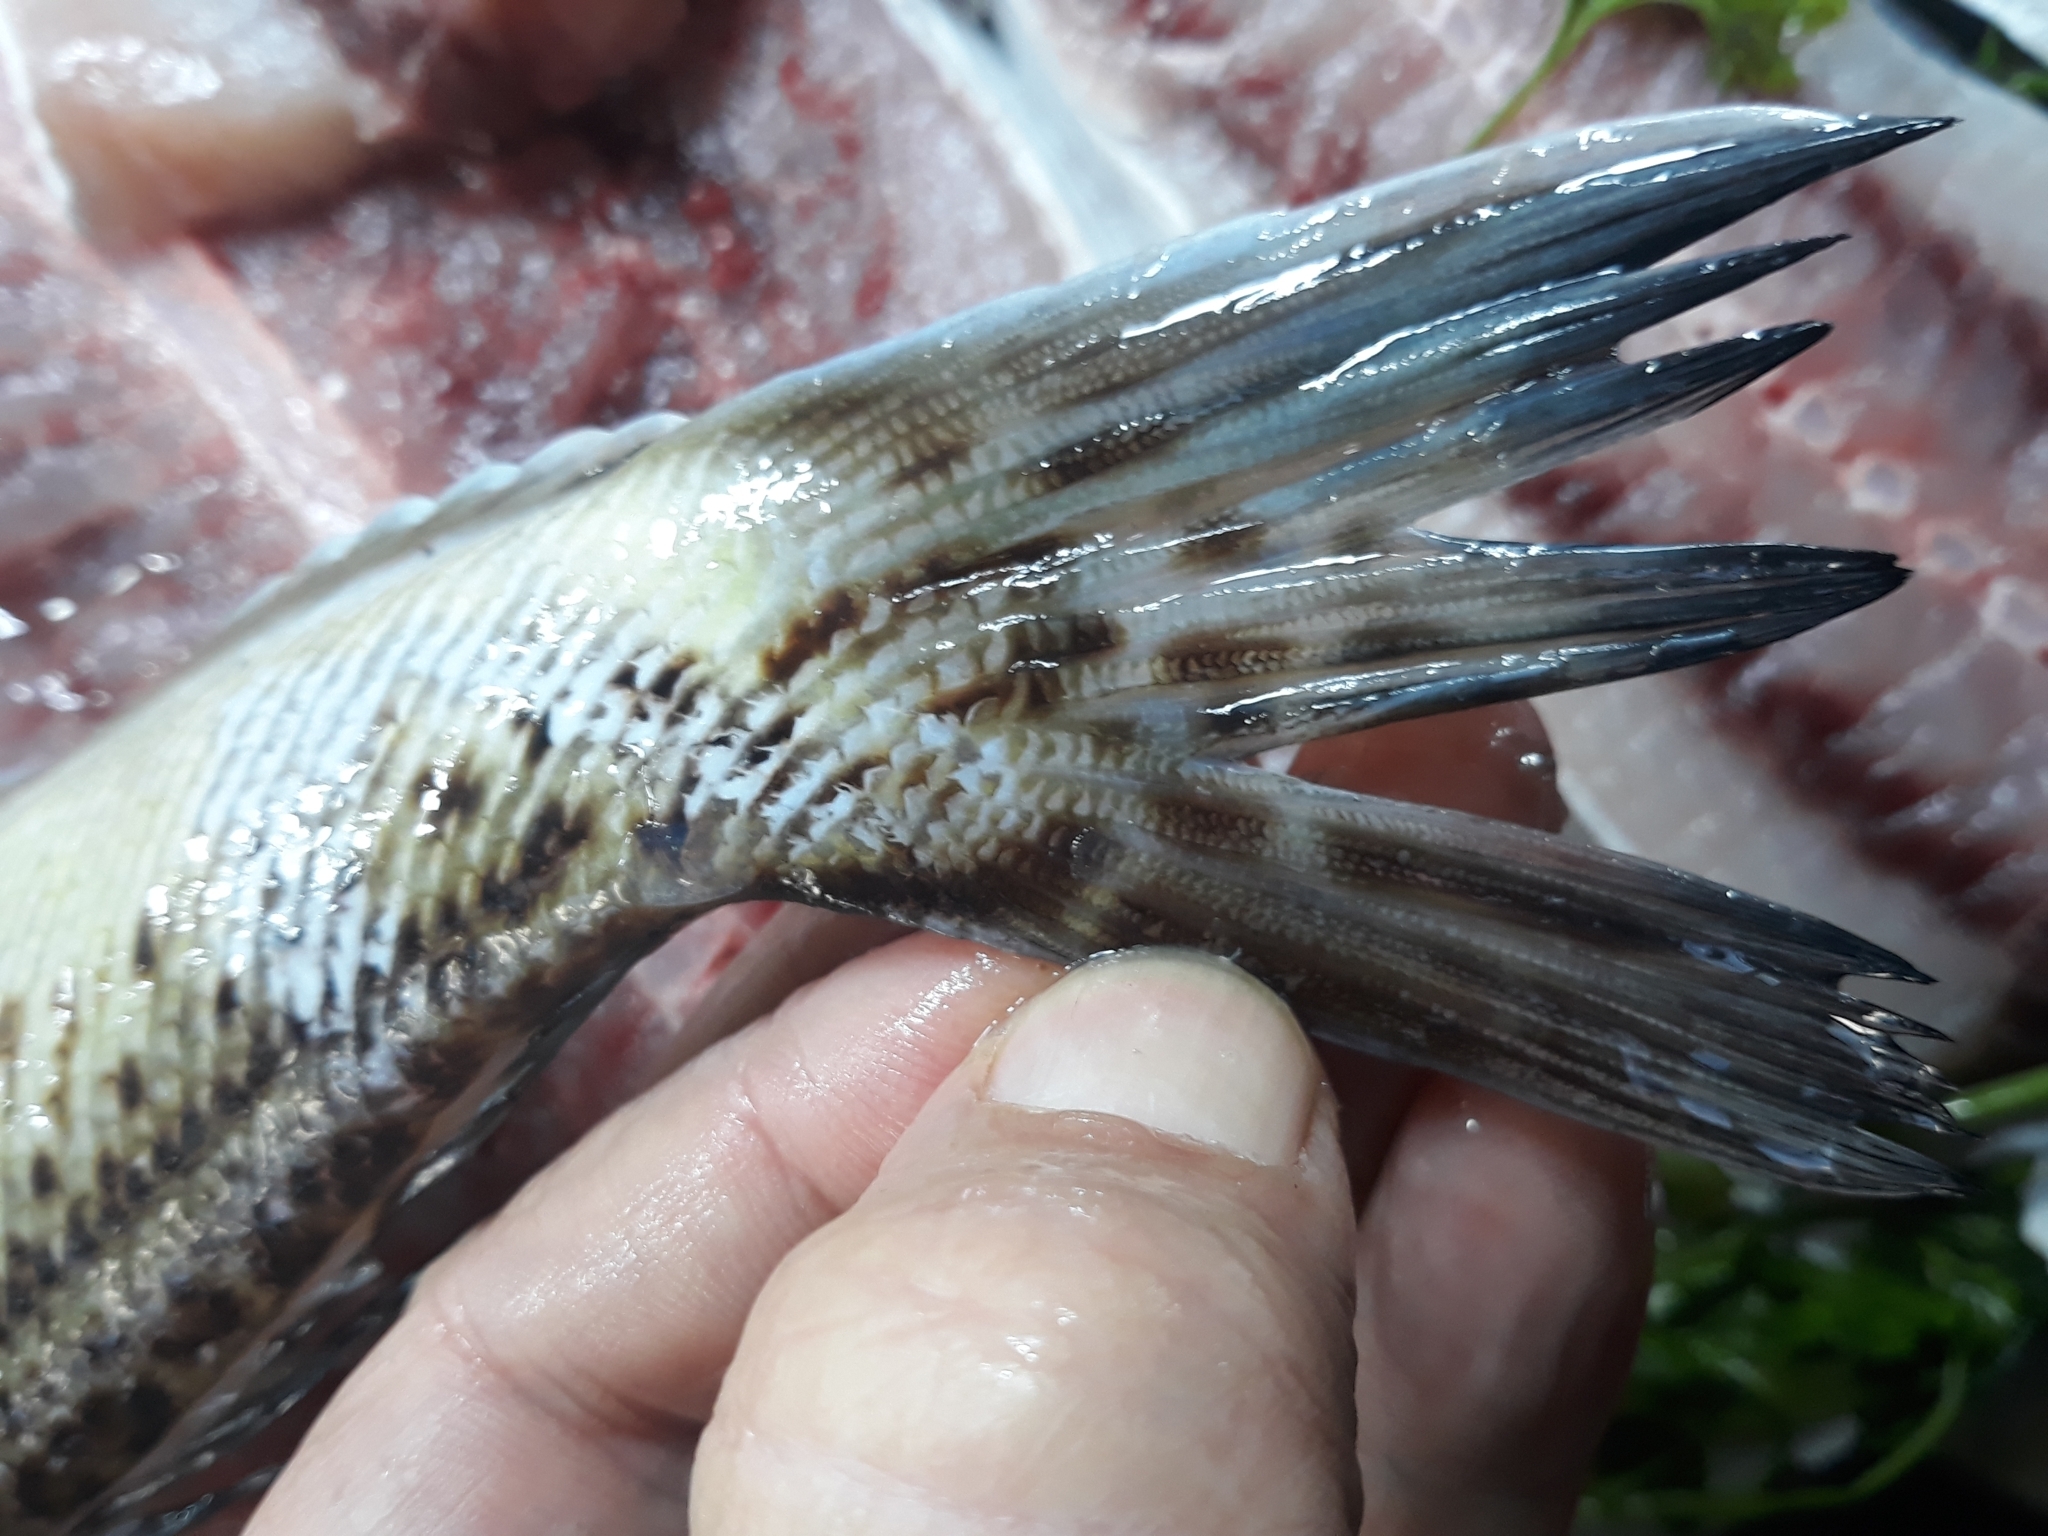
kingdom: Animalia
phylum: Chordata
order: Perciformes
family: Trachinidae
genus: Trachinus
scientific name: Trachinus radiatus
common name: Starry weever
